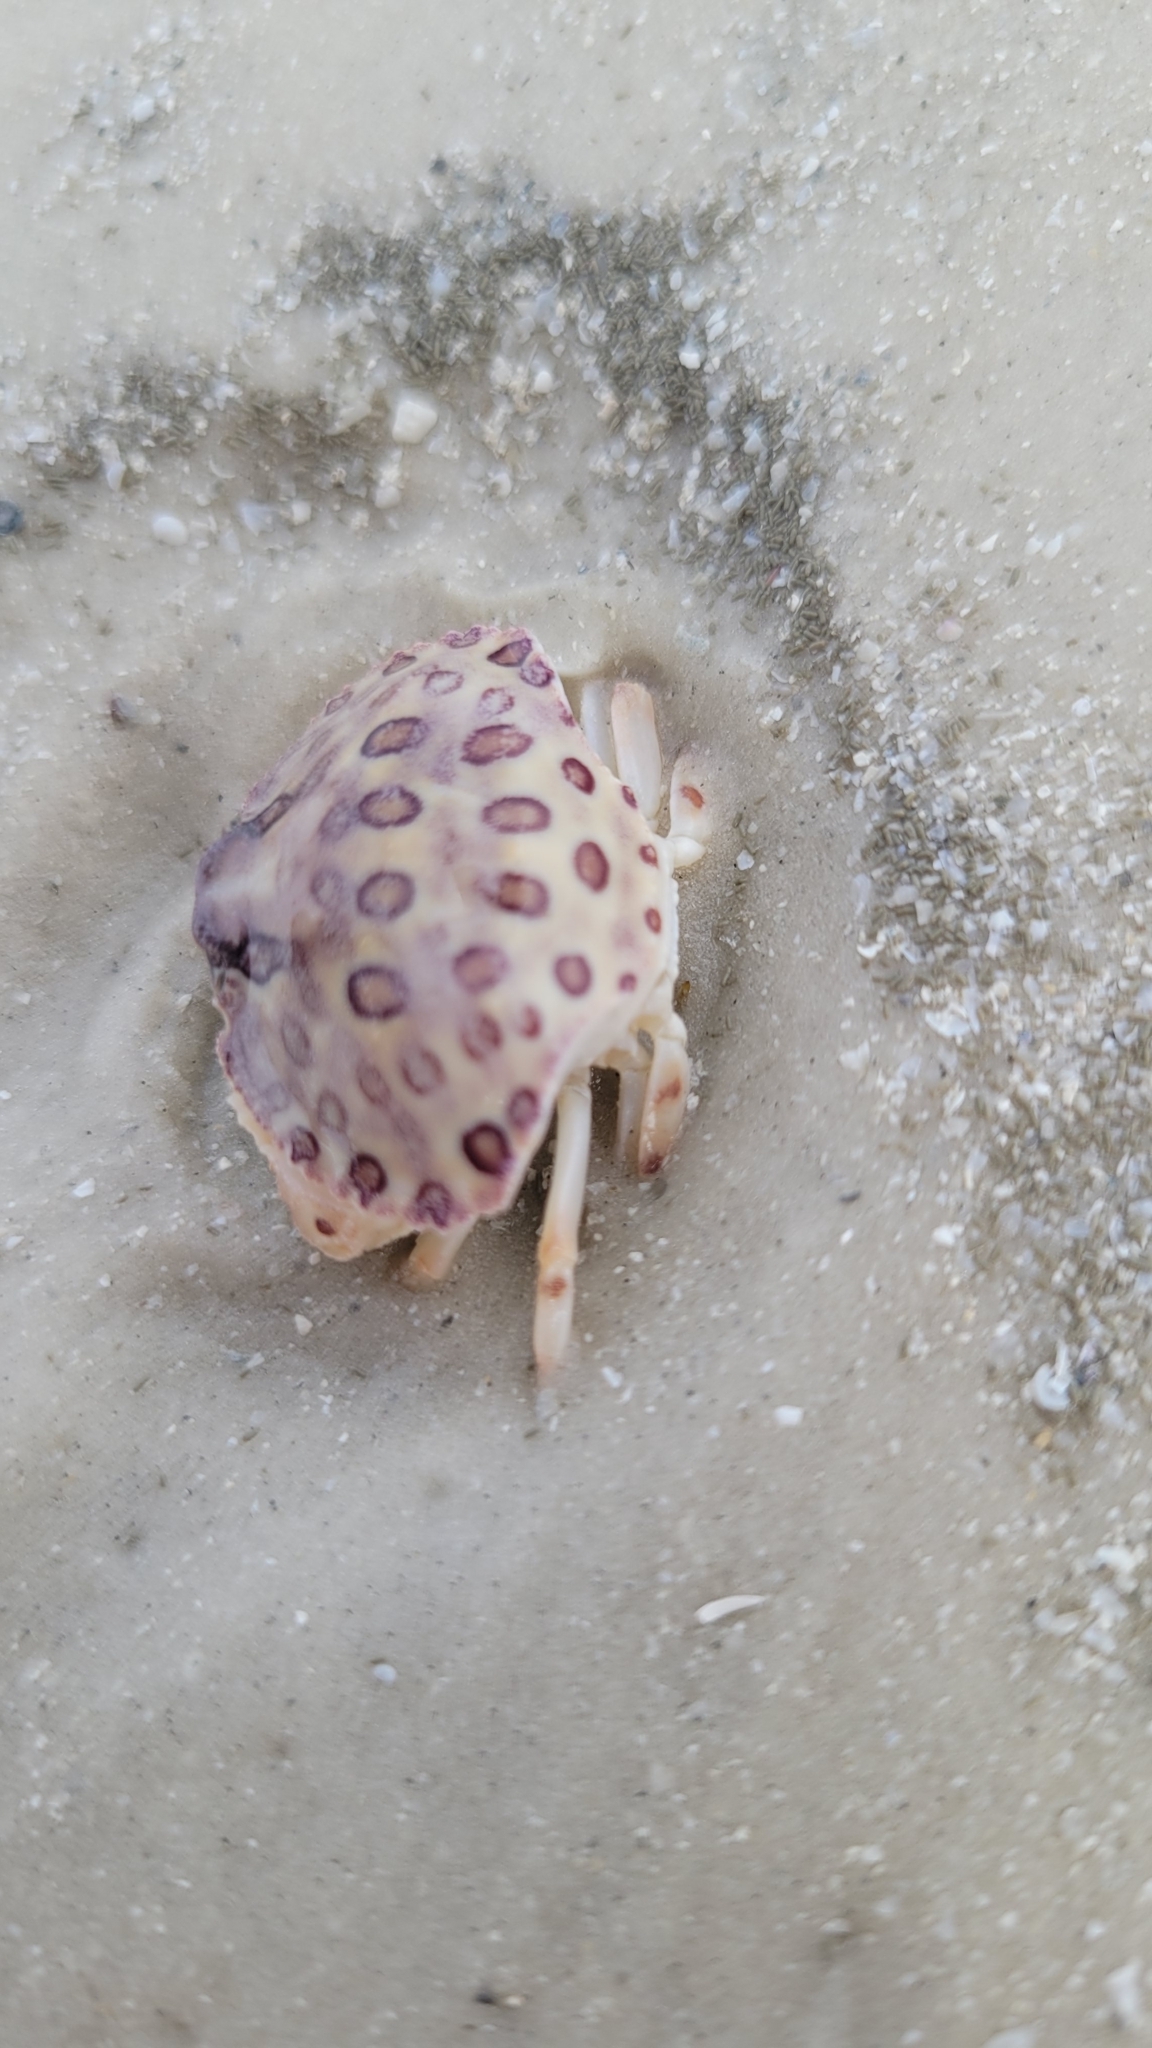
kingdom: Animalia
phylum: Arthropoda
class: Malacostraca
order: Decapoda
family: Aethridae
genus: Hepatus
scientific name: Hepatus epheliticus
